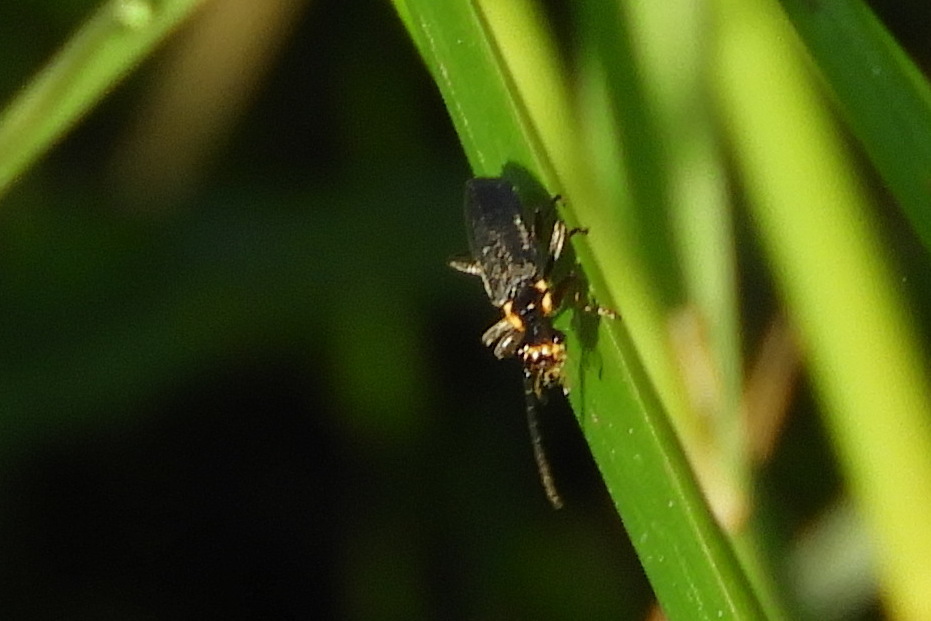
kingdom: Animalia
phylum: Arthropoda
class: Insecta
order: Coleoptera
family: Cantharidae
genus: Podabrus
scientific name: Podabrus rugosulus
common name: Wrinkled soldier beetle
